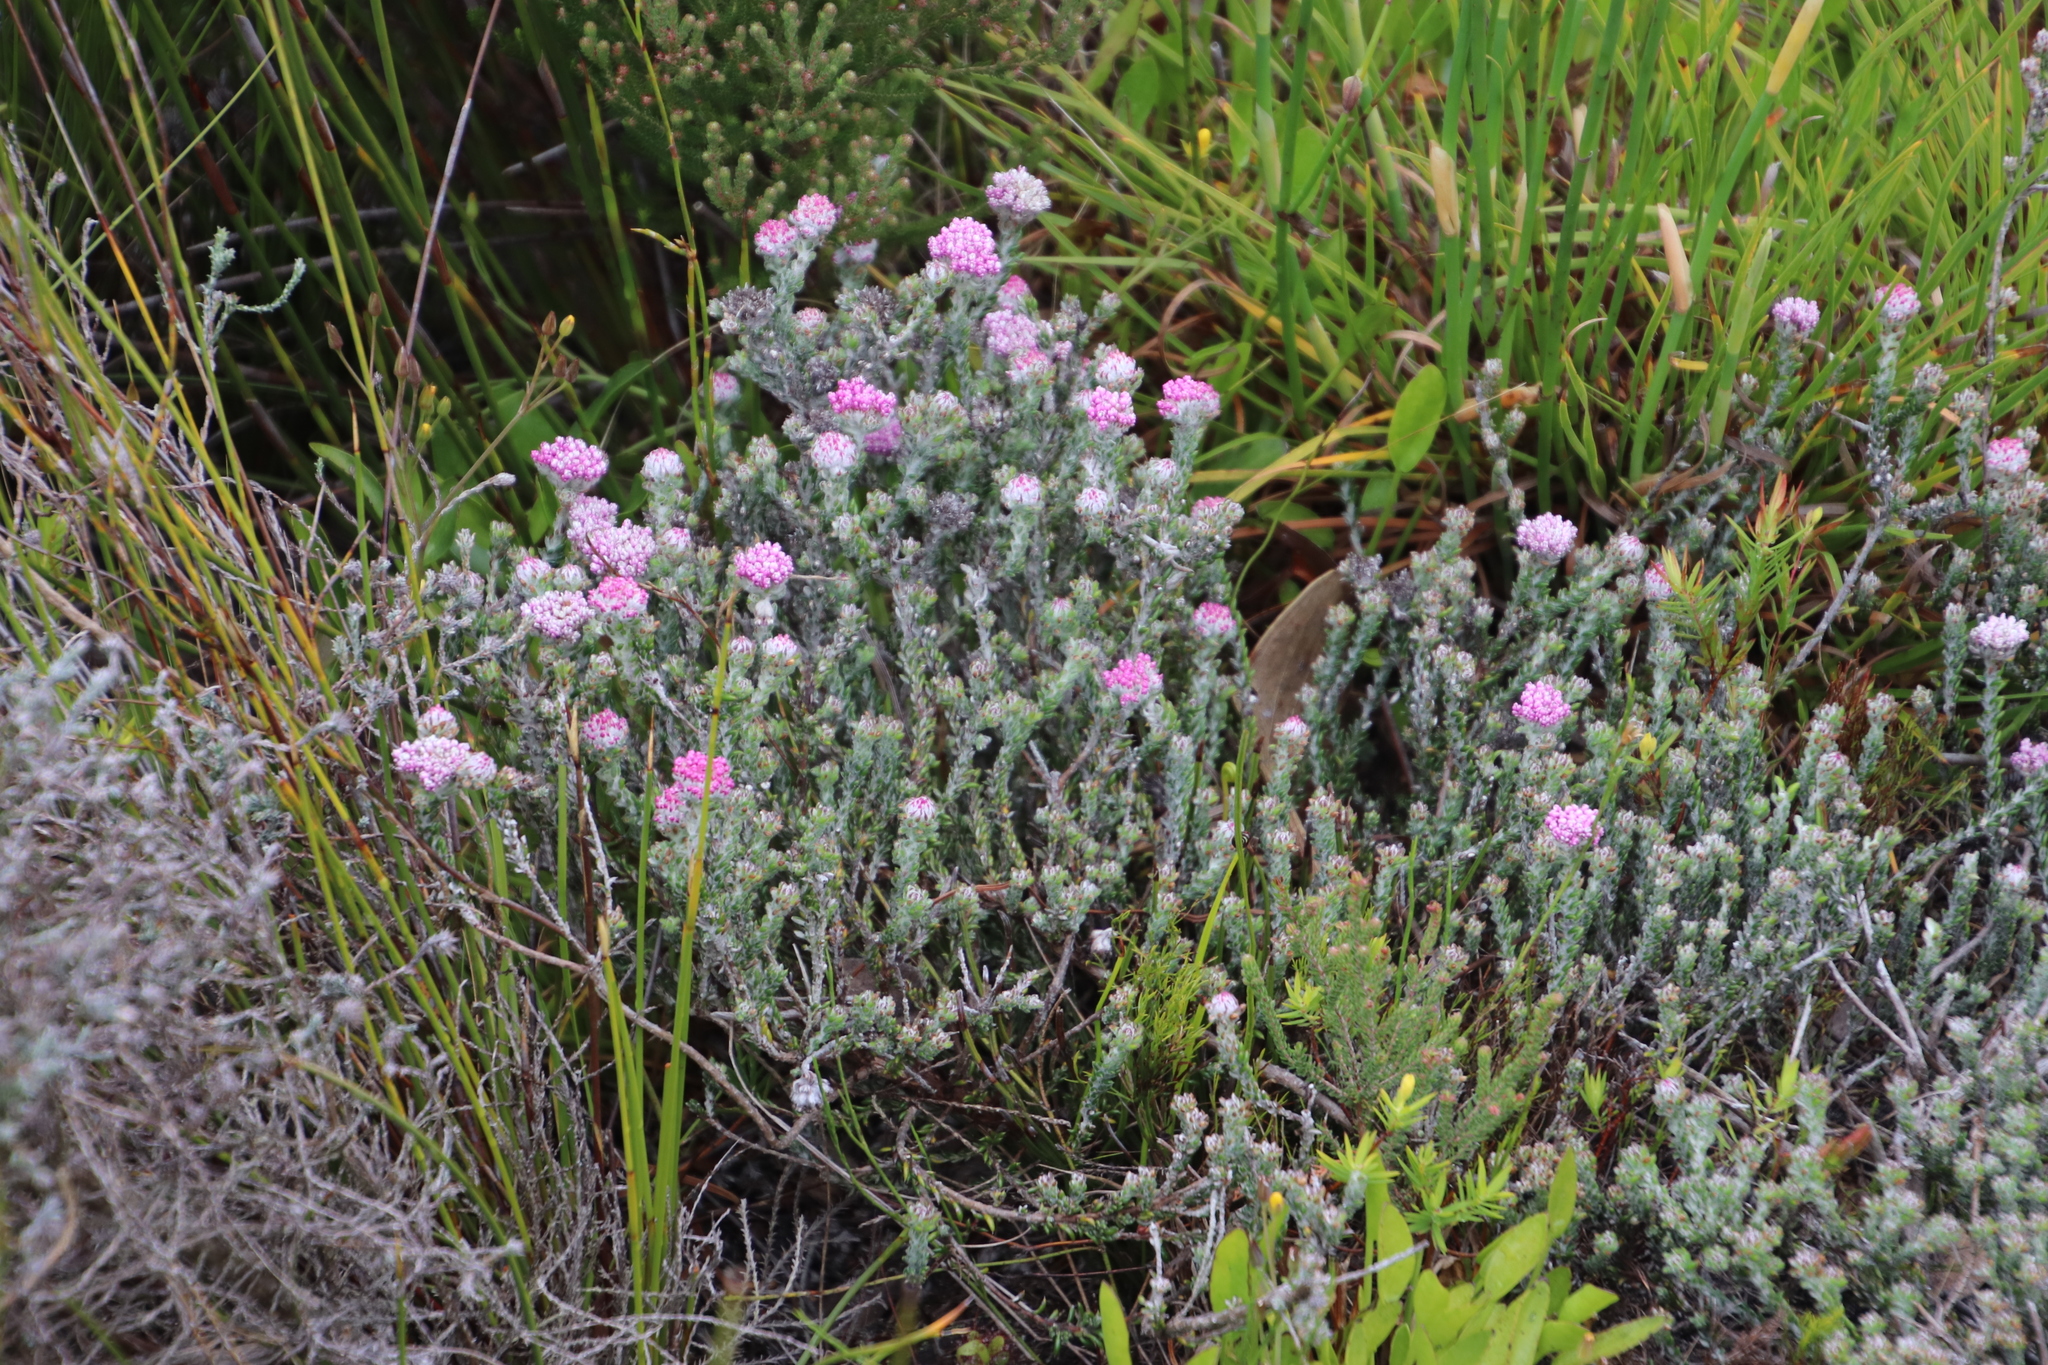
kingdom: Plantae
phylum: Tracheophyta
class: Magnoliopsida
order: Asterales
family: Asteraceae
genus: Metalasia
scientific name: Metalasia erubescens
